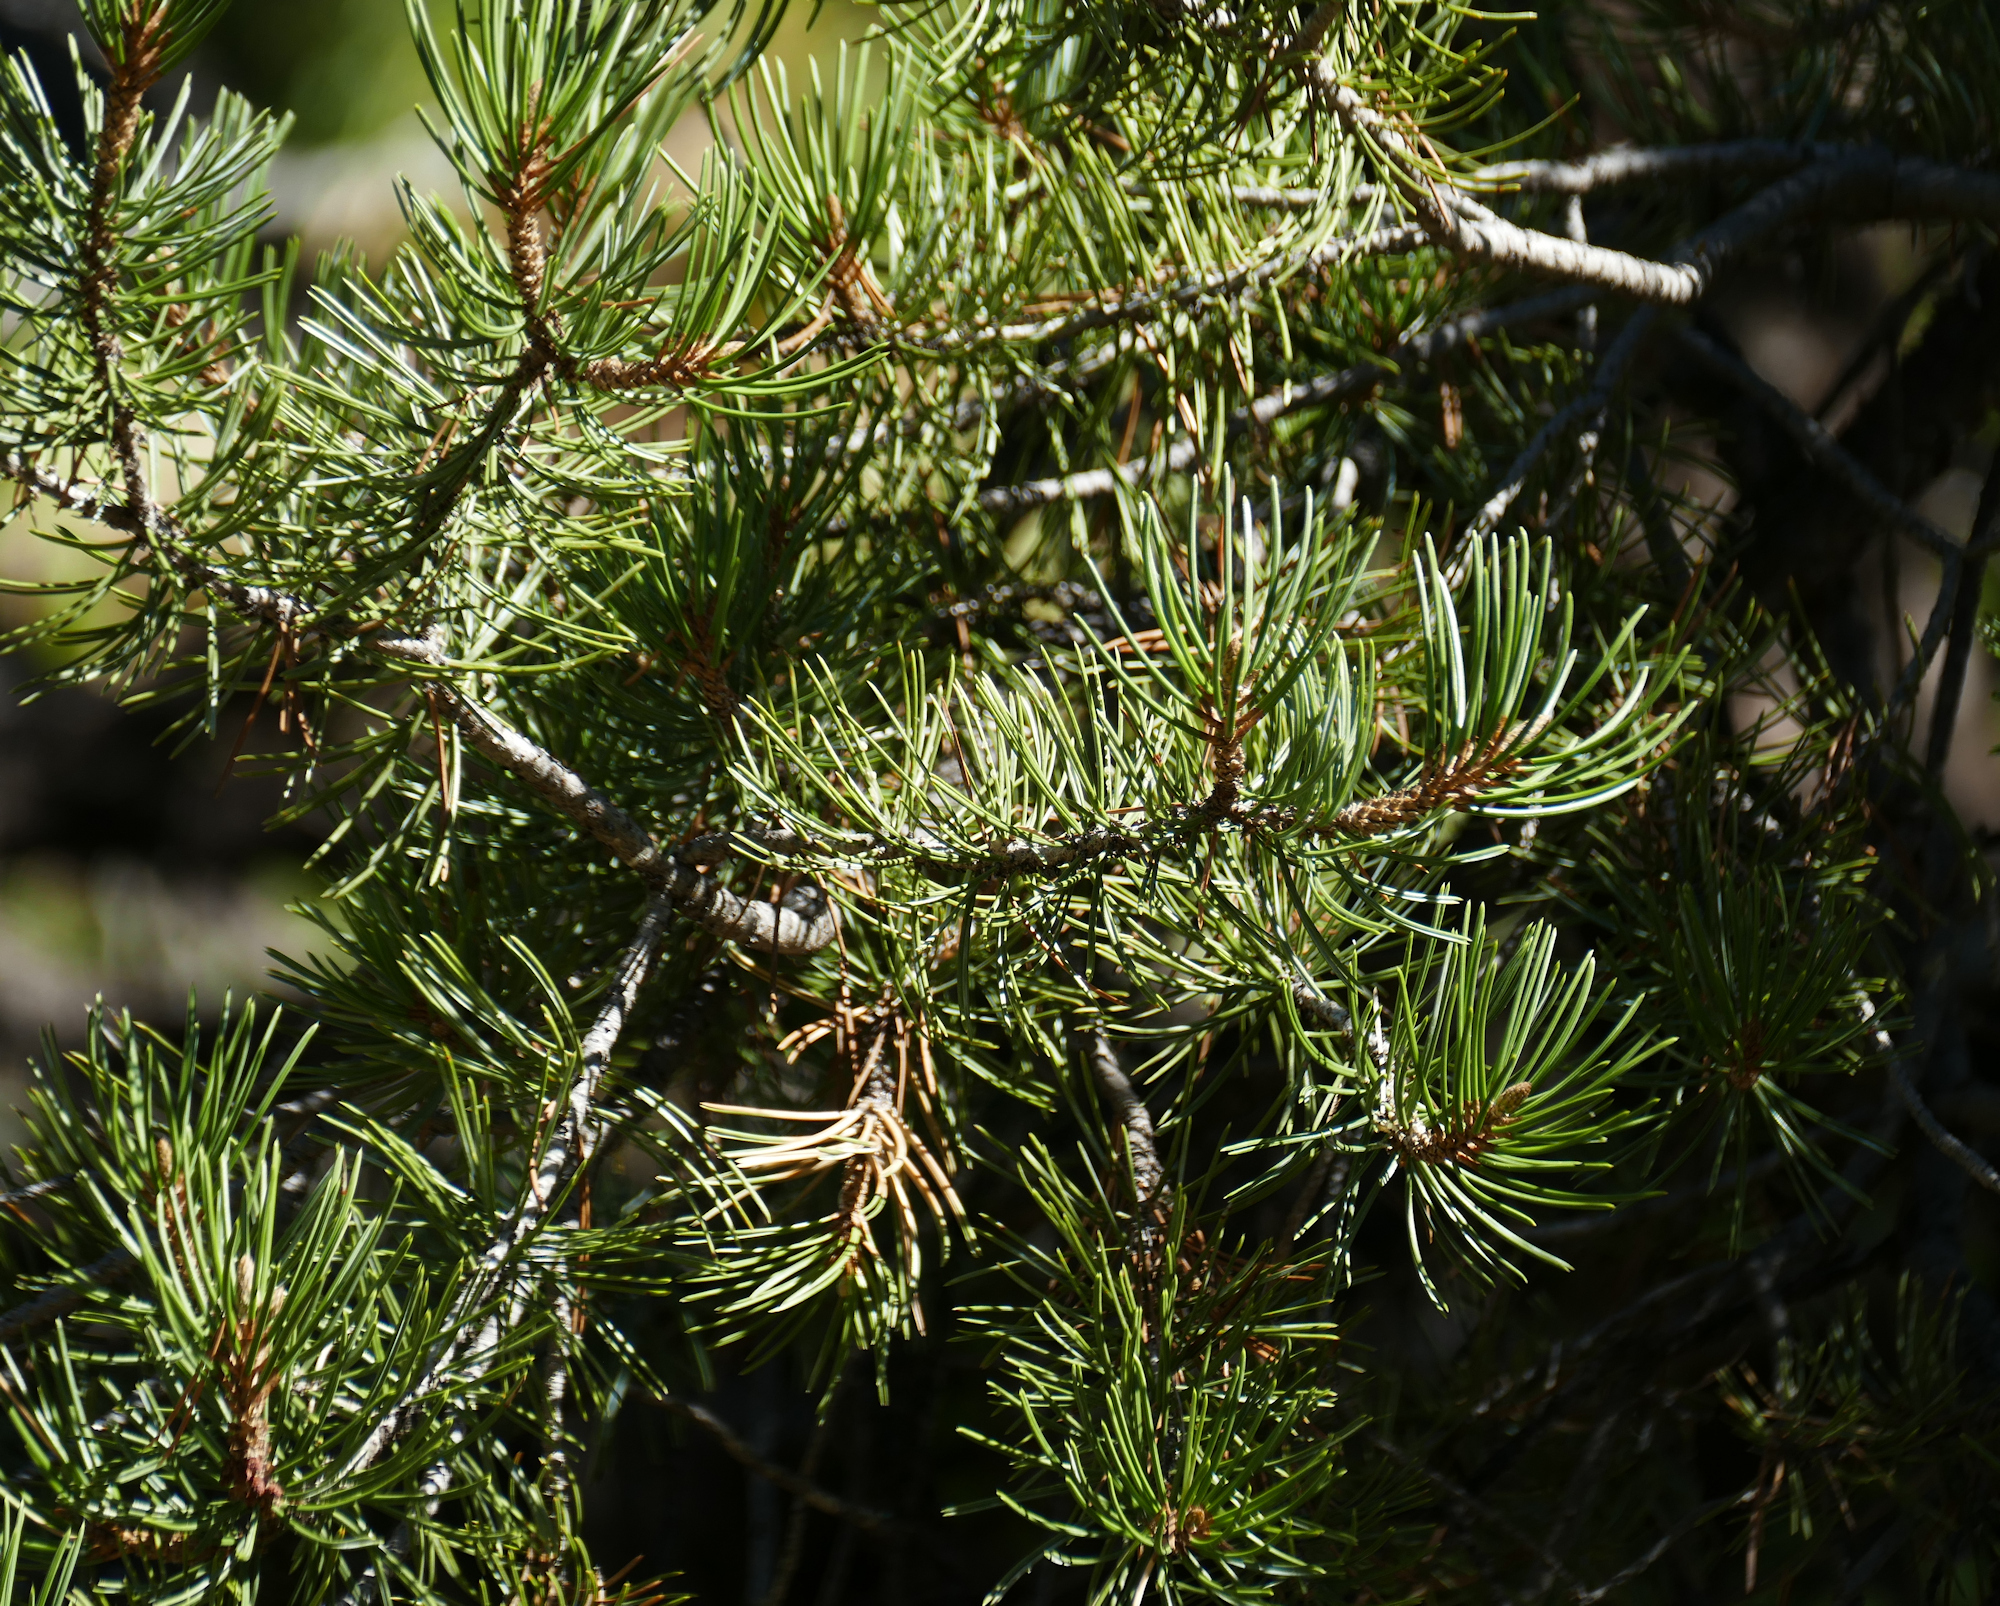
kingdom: Plantae
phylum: Tracheophyta
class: Pinopsida
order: Pinales
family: Pinaceae
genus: Pinus
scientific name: Pinus edulis
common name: Colorado pinyon
